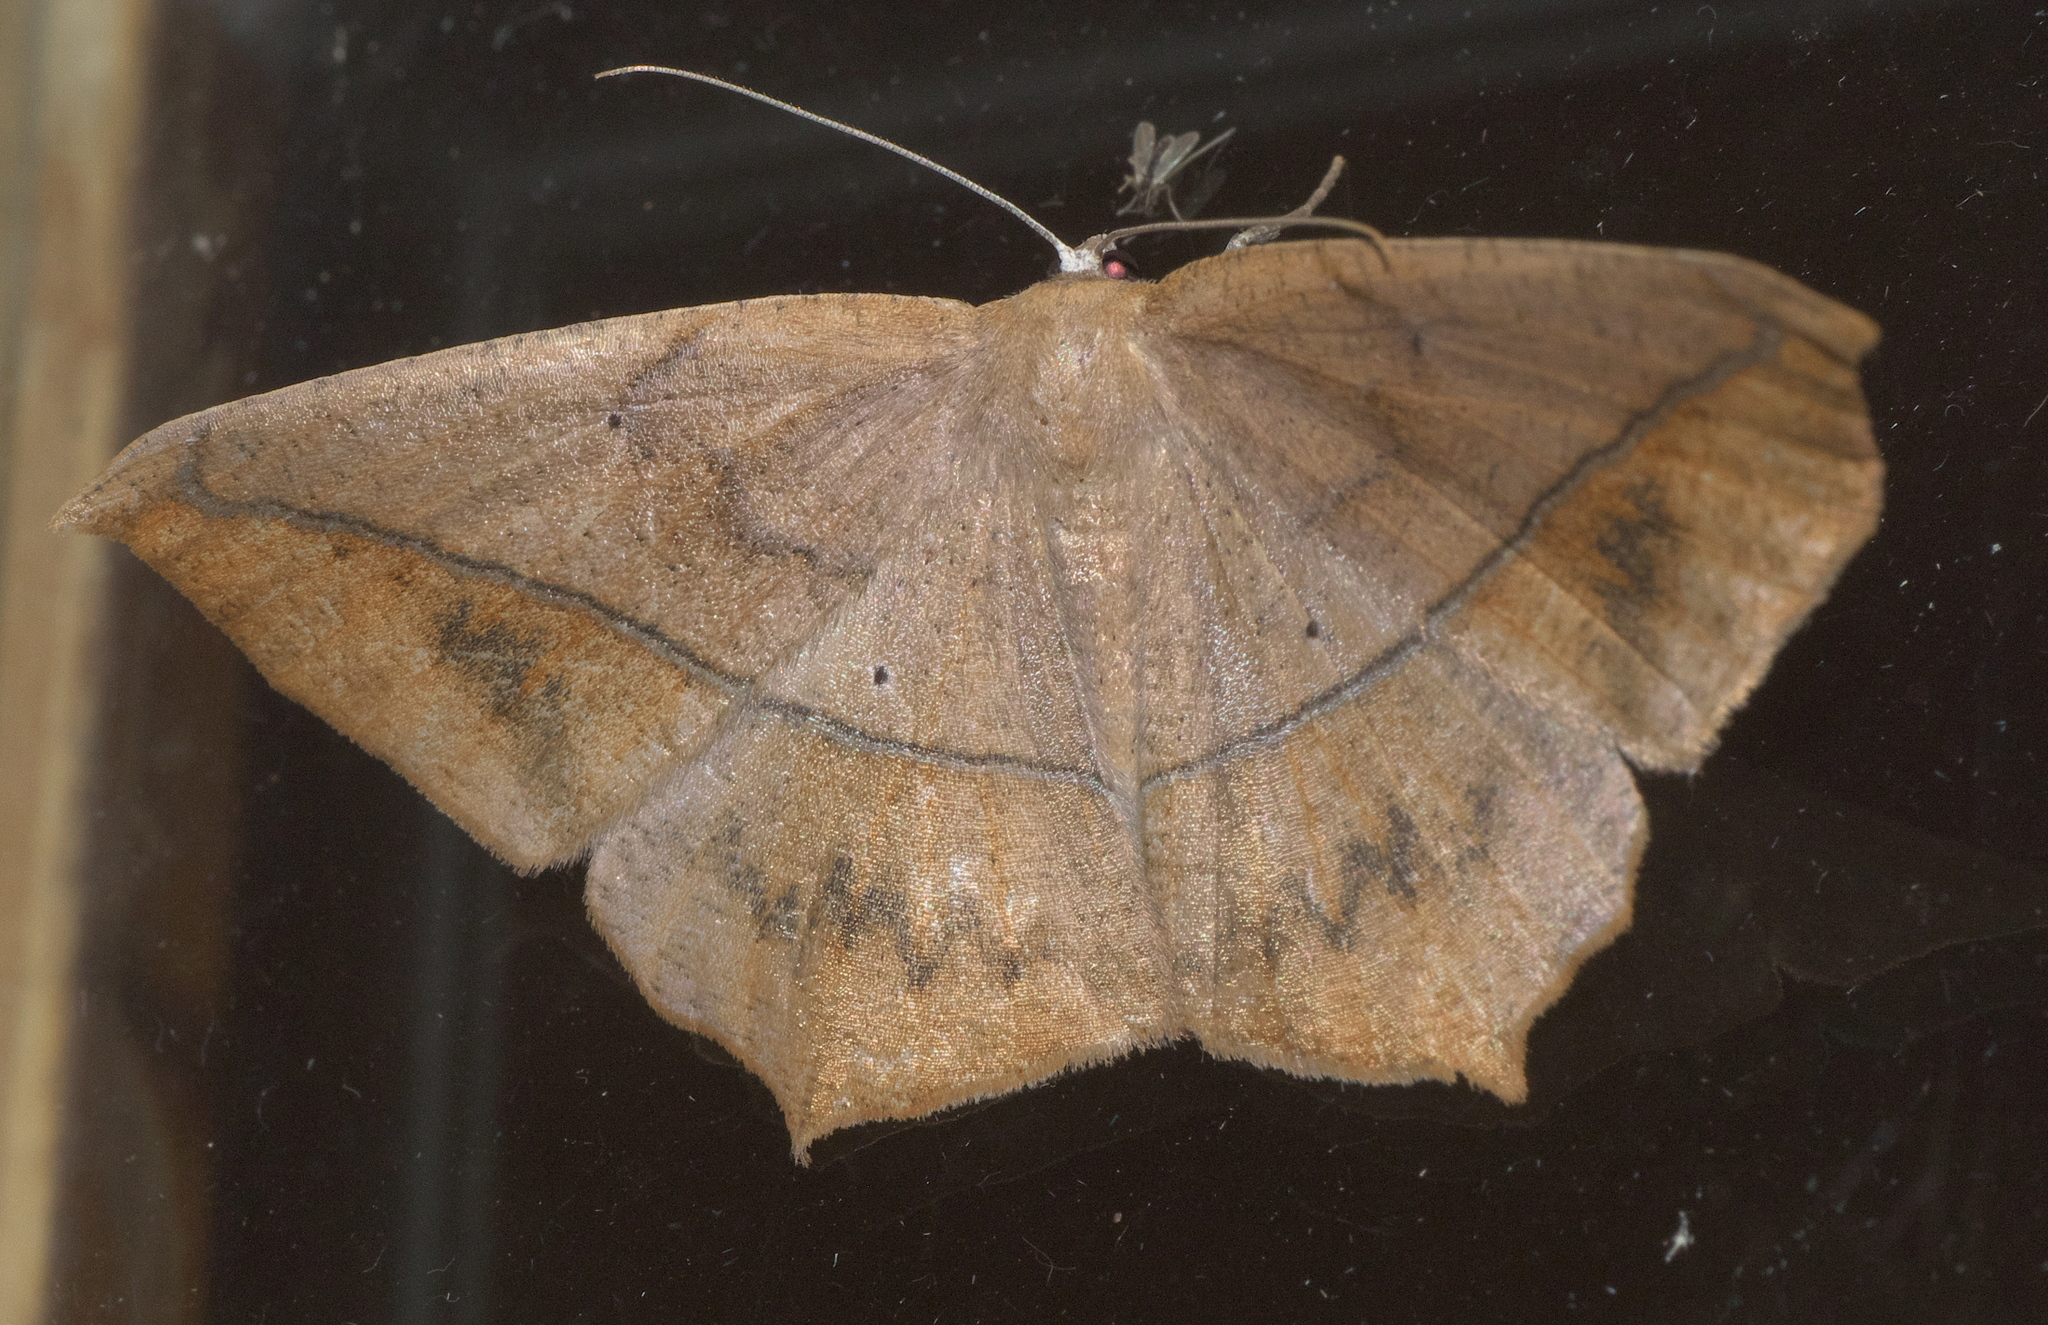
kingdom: Animalia
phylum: Arthropoda
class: Insecta
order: Lepidoptera
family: Geometridae
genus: Prochoerodes
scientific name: Prochoerodes lineola
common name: Large maple spanworm
